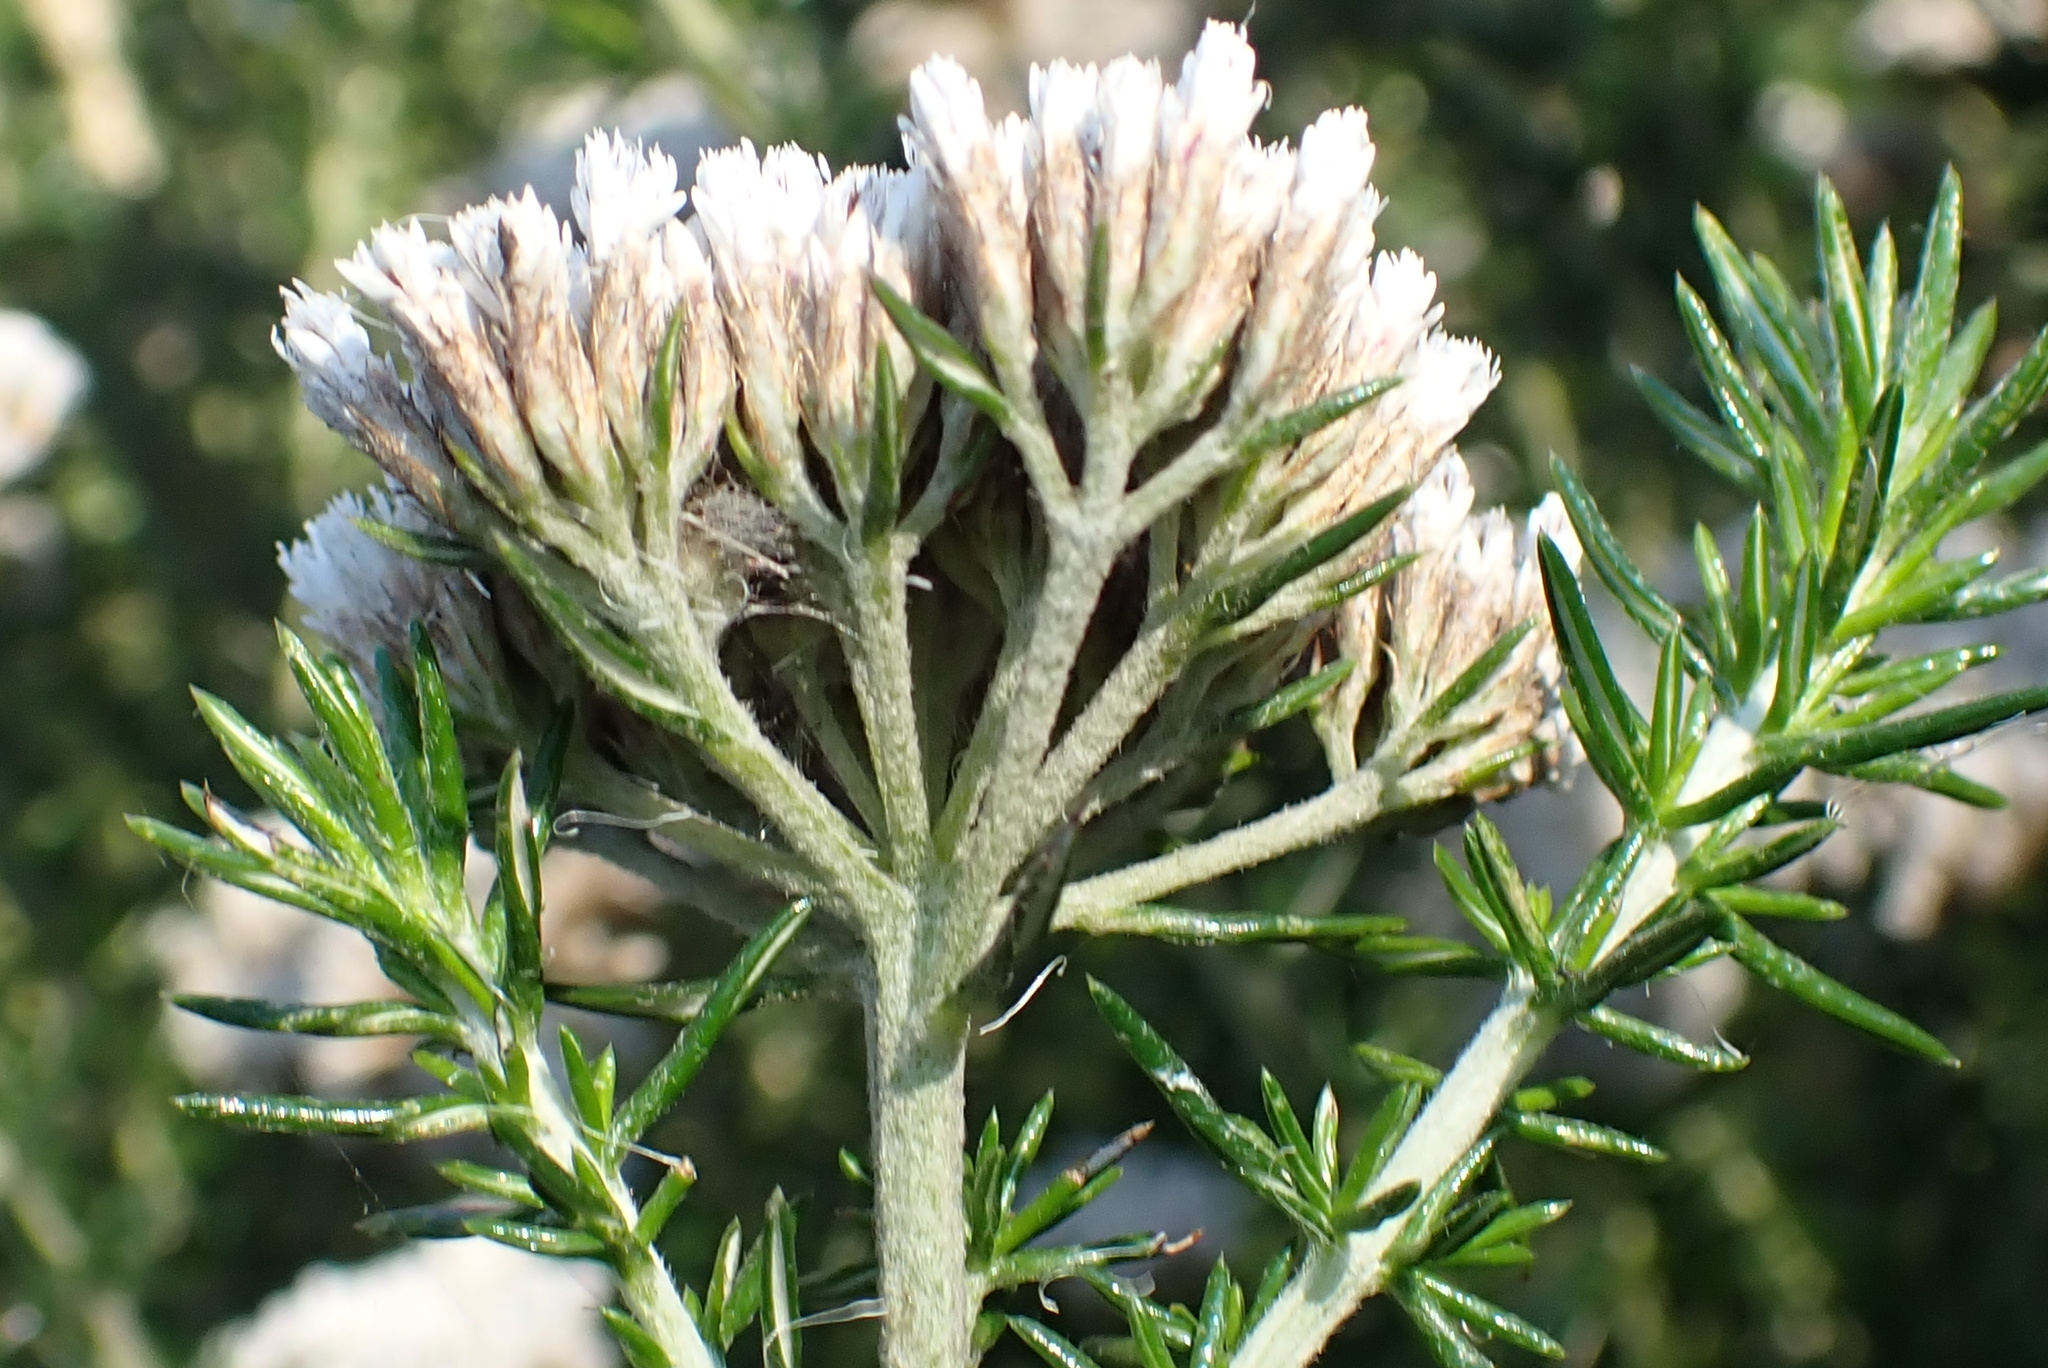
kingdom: Plantae
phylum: Tracheophyta
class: Magnoliopsida
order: Asterales
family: Asteraceae
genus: Metalasia
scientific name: Metalasia trivialis
